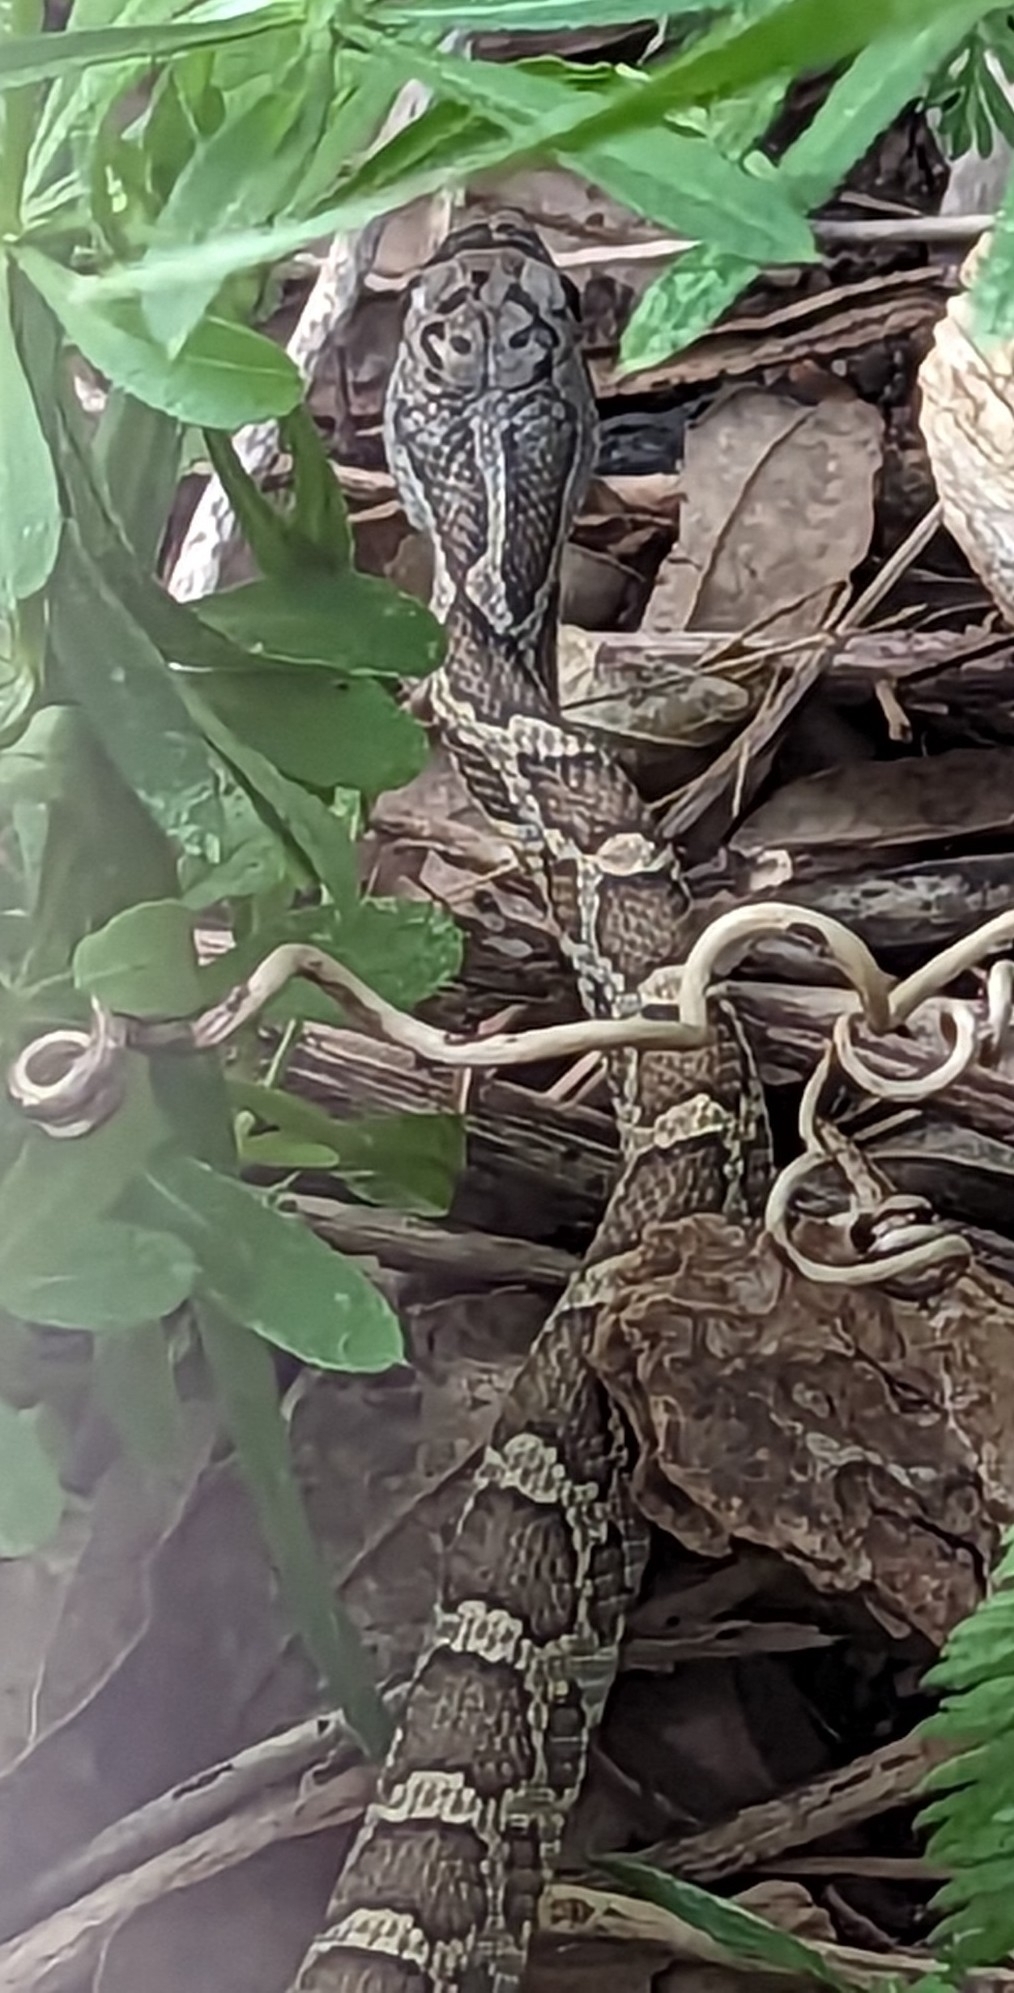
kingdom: Animalia
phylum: Chordata
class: Squamata
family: Colubridae
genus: Pantherophis
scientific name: Pantherophis obsoletus
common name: Black rat snake
